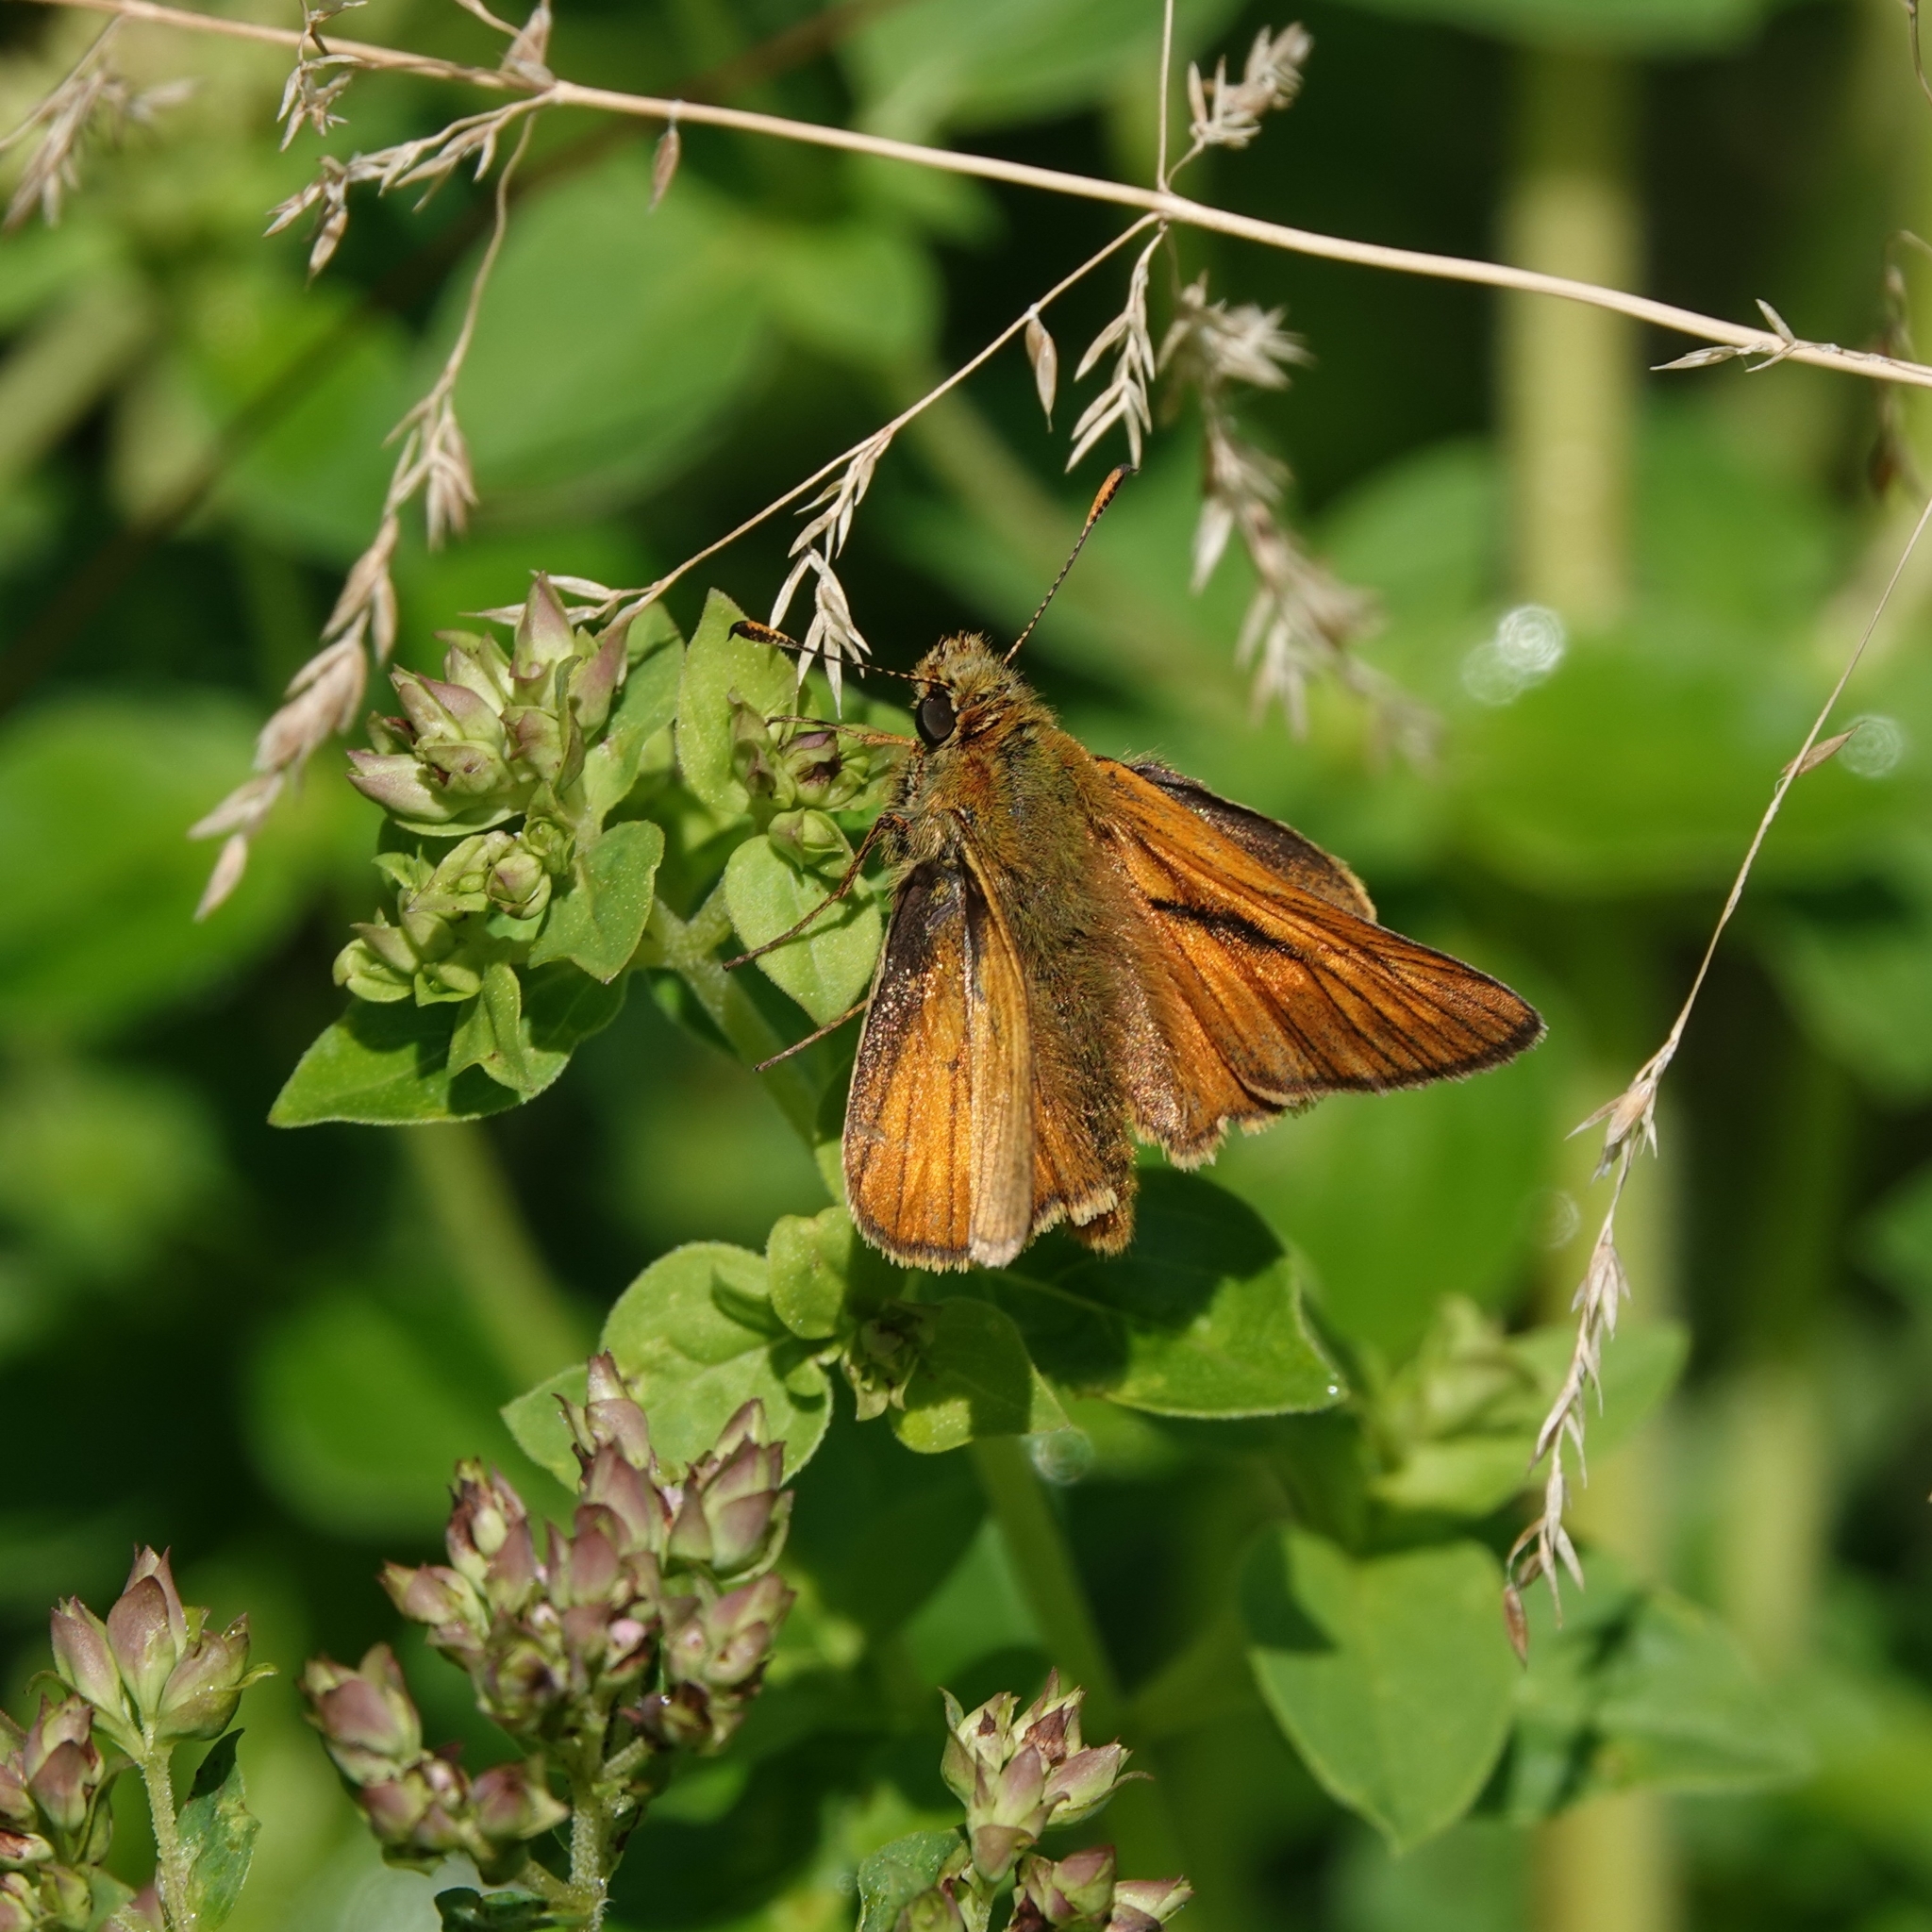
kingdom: Animalia
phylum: Arthropoda
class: Insecta
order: Lepidoptera
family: Hesperiidae
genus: Ochlodes
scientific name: Ochlodes venata
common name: Large skipper
